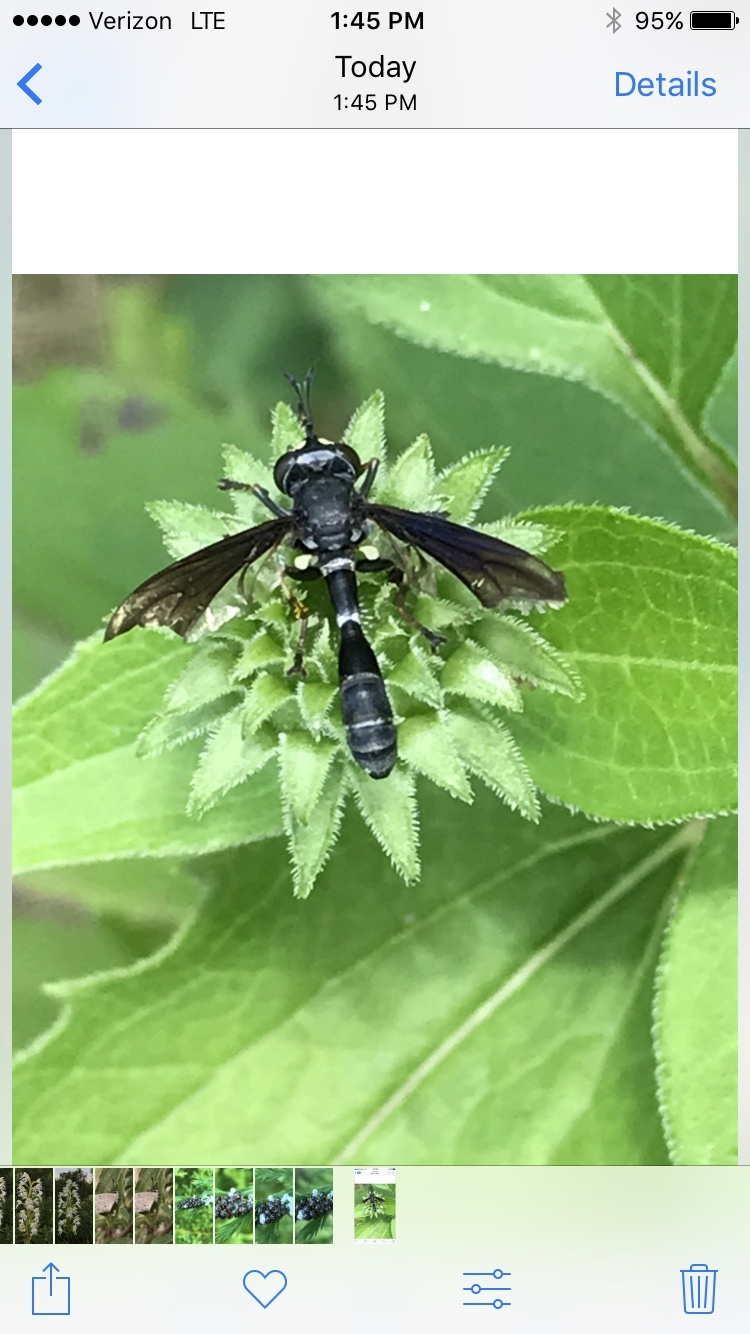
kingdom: Animalia
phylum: Arthropoda
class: Insecta
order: Diptera
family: Conopidae
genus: Physocephala
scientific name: Physocephala tibialis
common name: Common eastern physocephala
